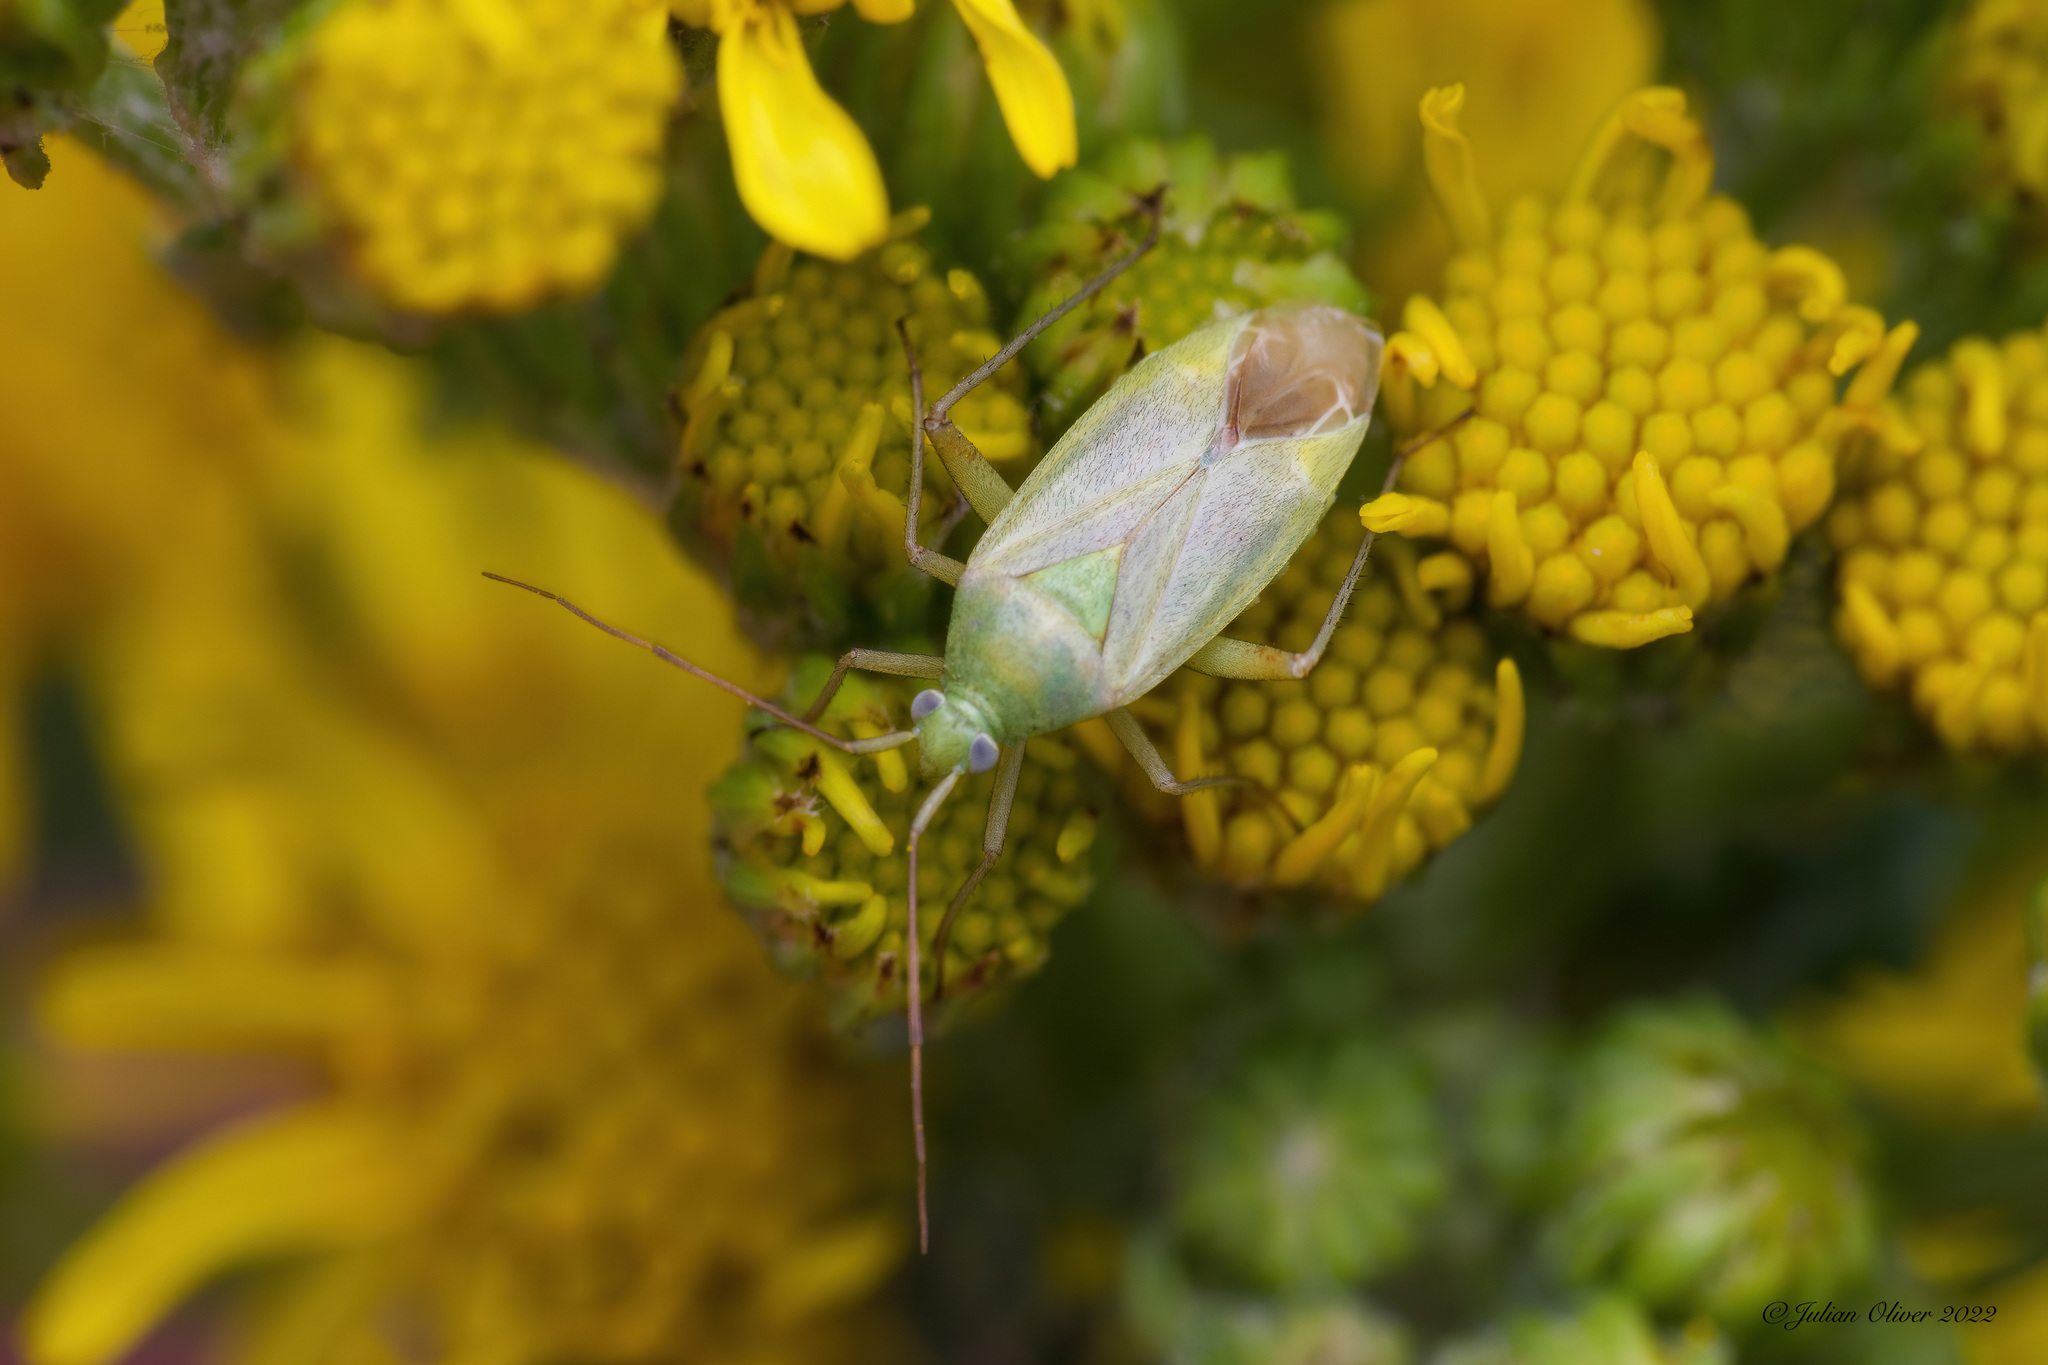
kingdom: Animalia
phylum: Arthropoda
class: Insecta
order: Hemiptera
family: Miridae
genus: Closterotomus
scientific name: Closterotomus norvegicus
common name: Plant bug
